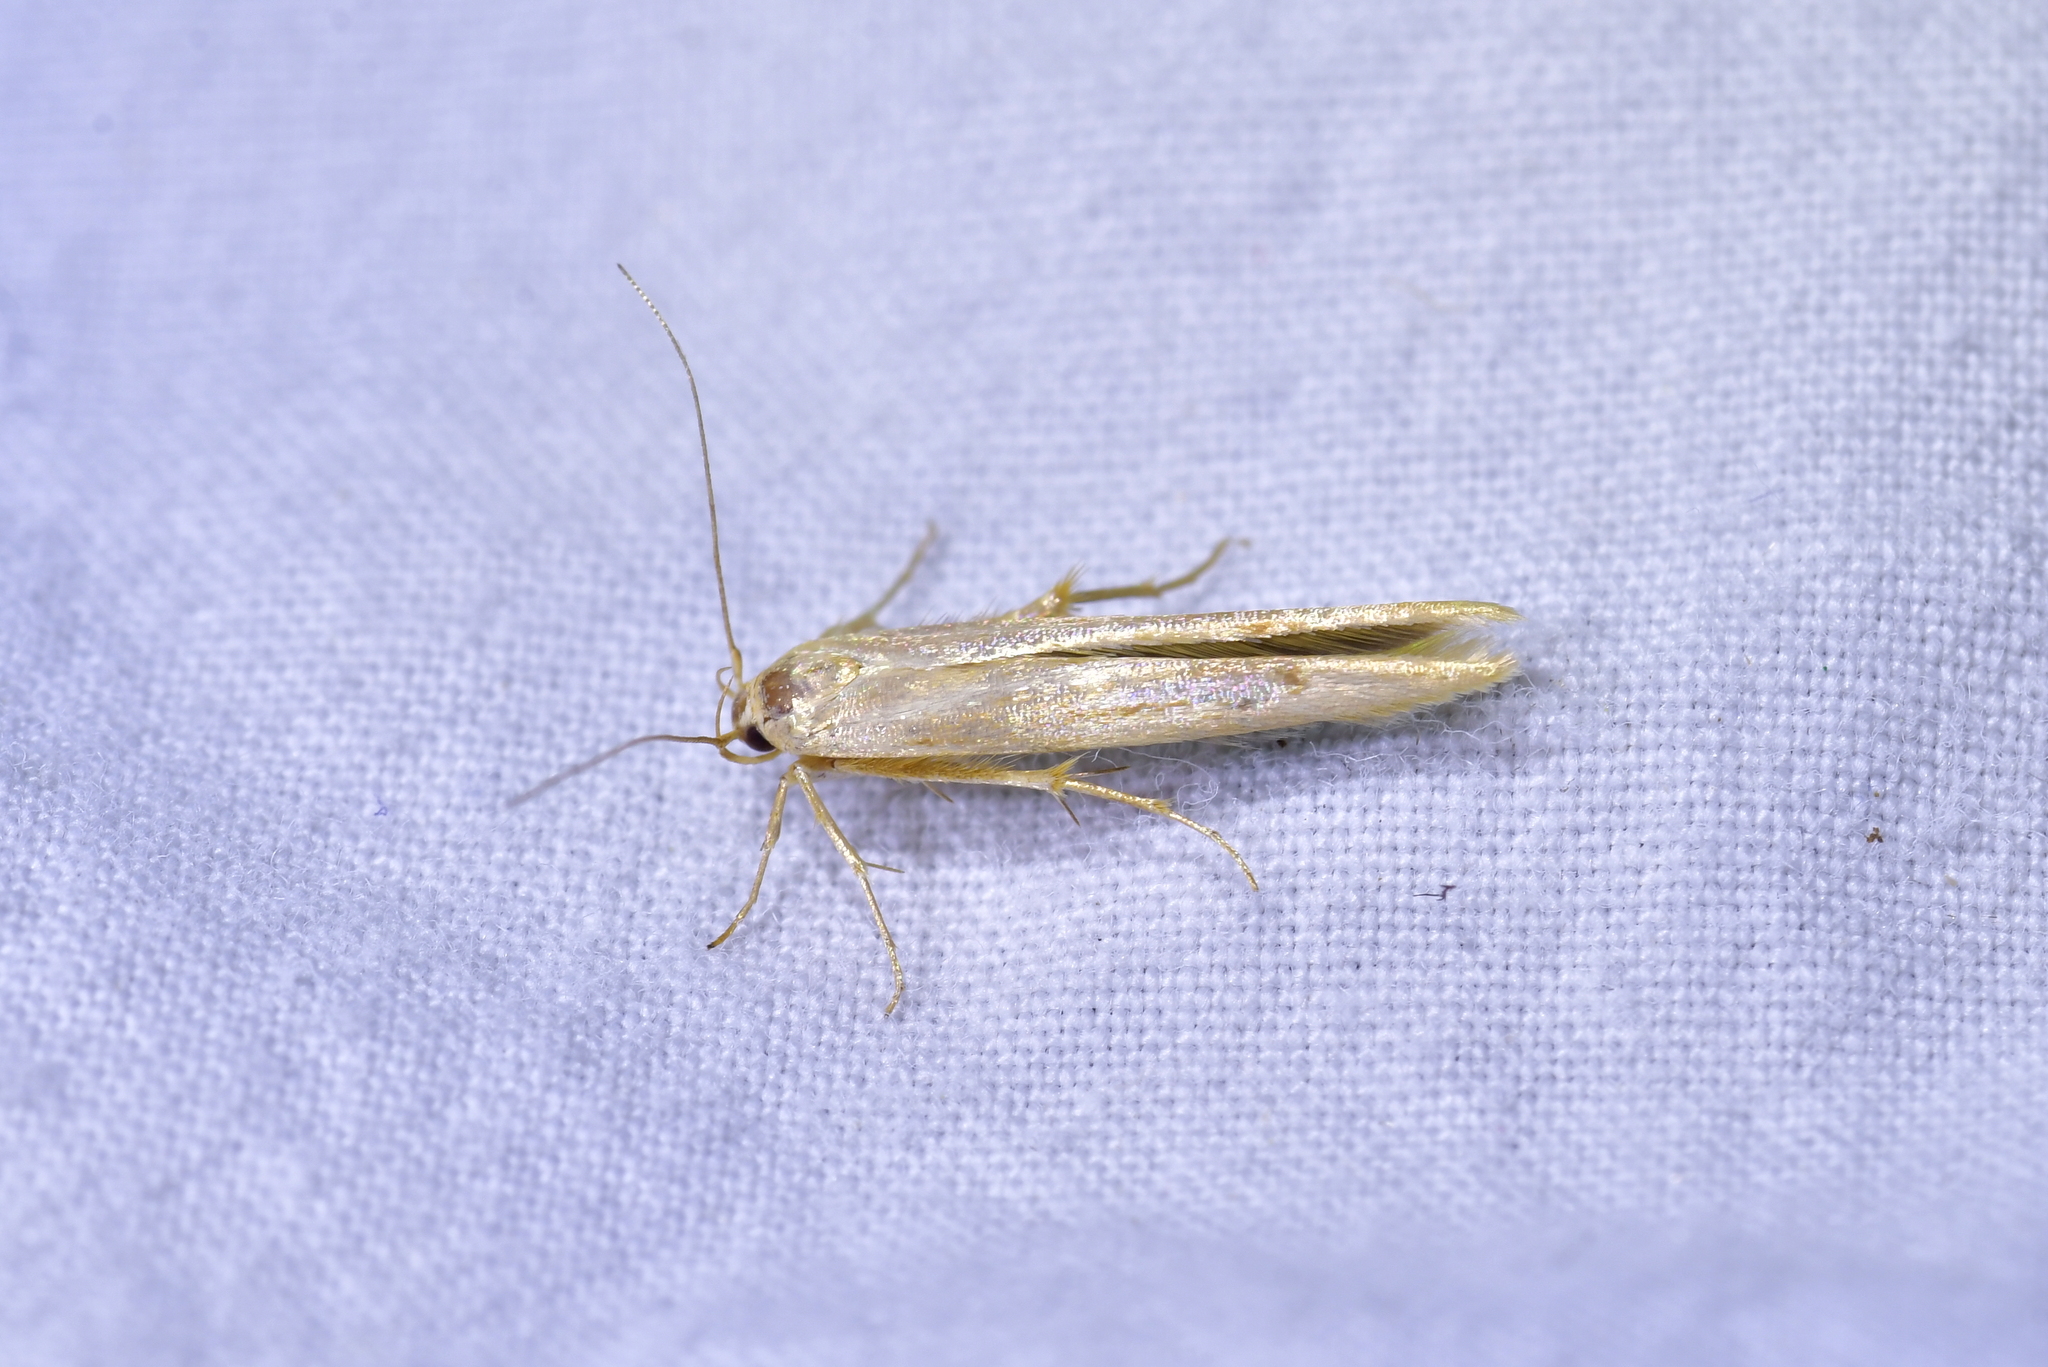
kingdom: Animalia
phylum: Arthropoda
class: Insecta
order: Lepidoptera
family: Stathmopodidae
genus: Stathmopoda
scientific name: Stathmopoda aposema
